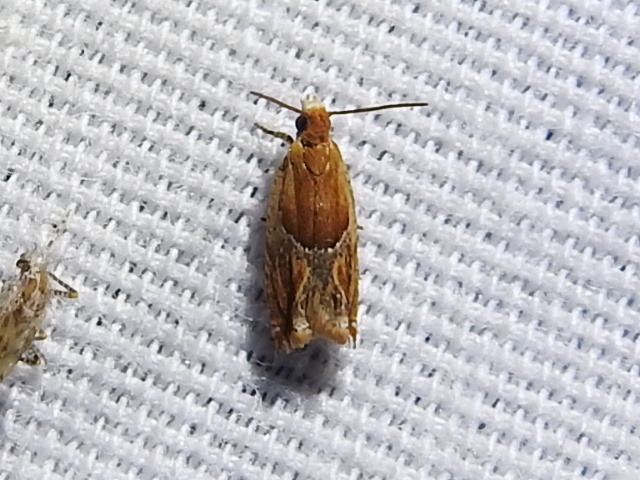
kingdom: Animalia
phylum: Arthropoda
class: Insecta
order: Lepidoptera
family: Tortricidae
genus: Ancylis
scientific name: Ancylis comptana
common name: Little roller
